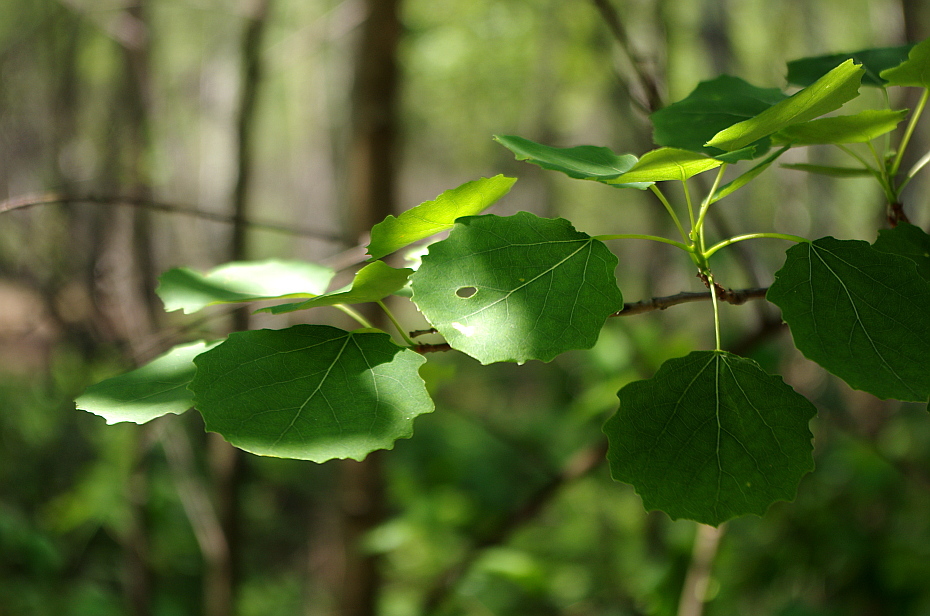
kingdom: Plantae
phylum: Tracheophyta
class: Magnoliopsida
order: Malpighiales
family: Salicaceae
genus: Populus
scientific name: Populus tremula
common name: European aspen
